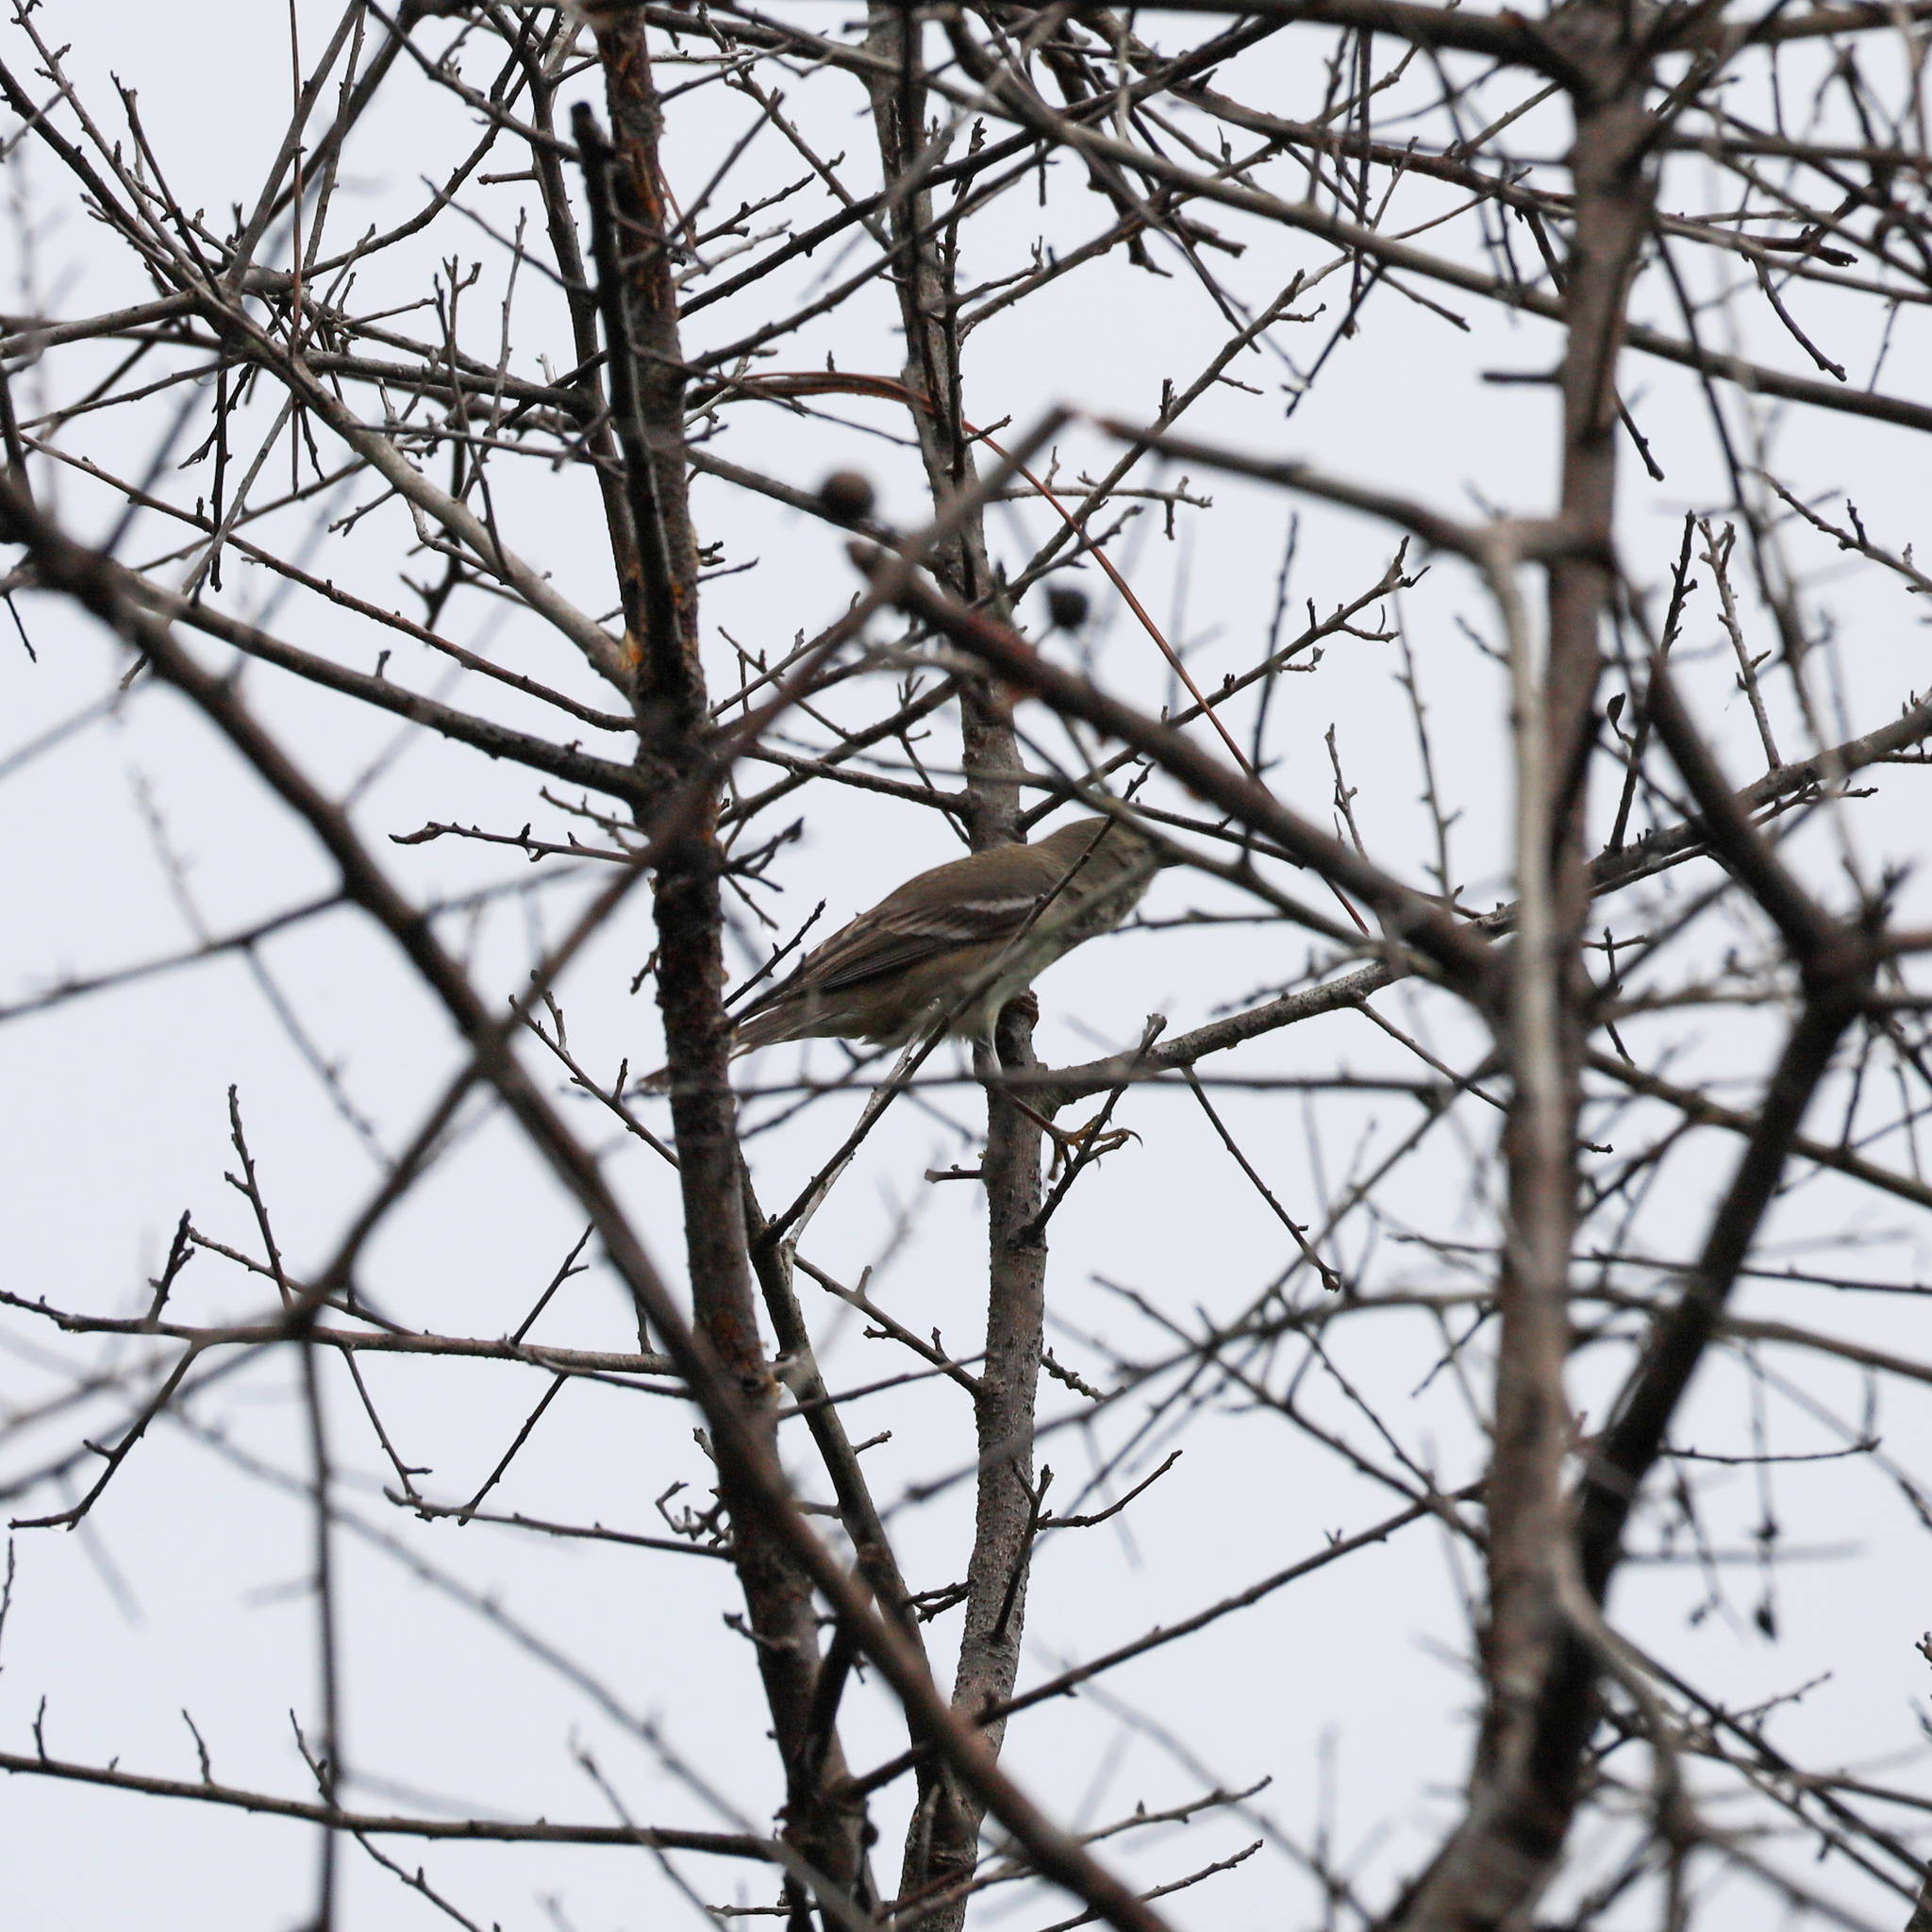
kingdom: Animalia
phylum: Chordata
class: Aves
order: Passeriformes
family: Parulidae
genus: Setophaga
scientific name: Setophaga pinus
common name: Pine warbler
